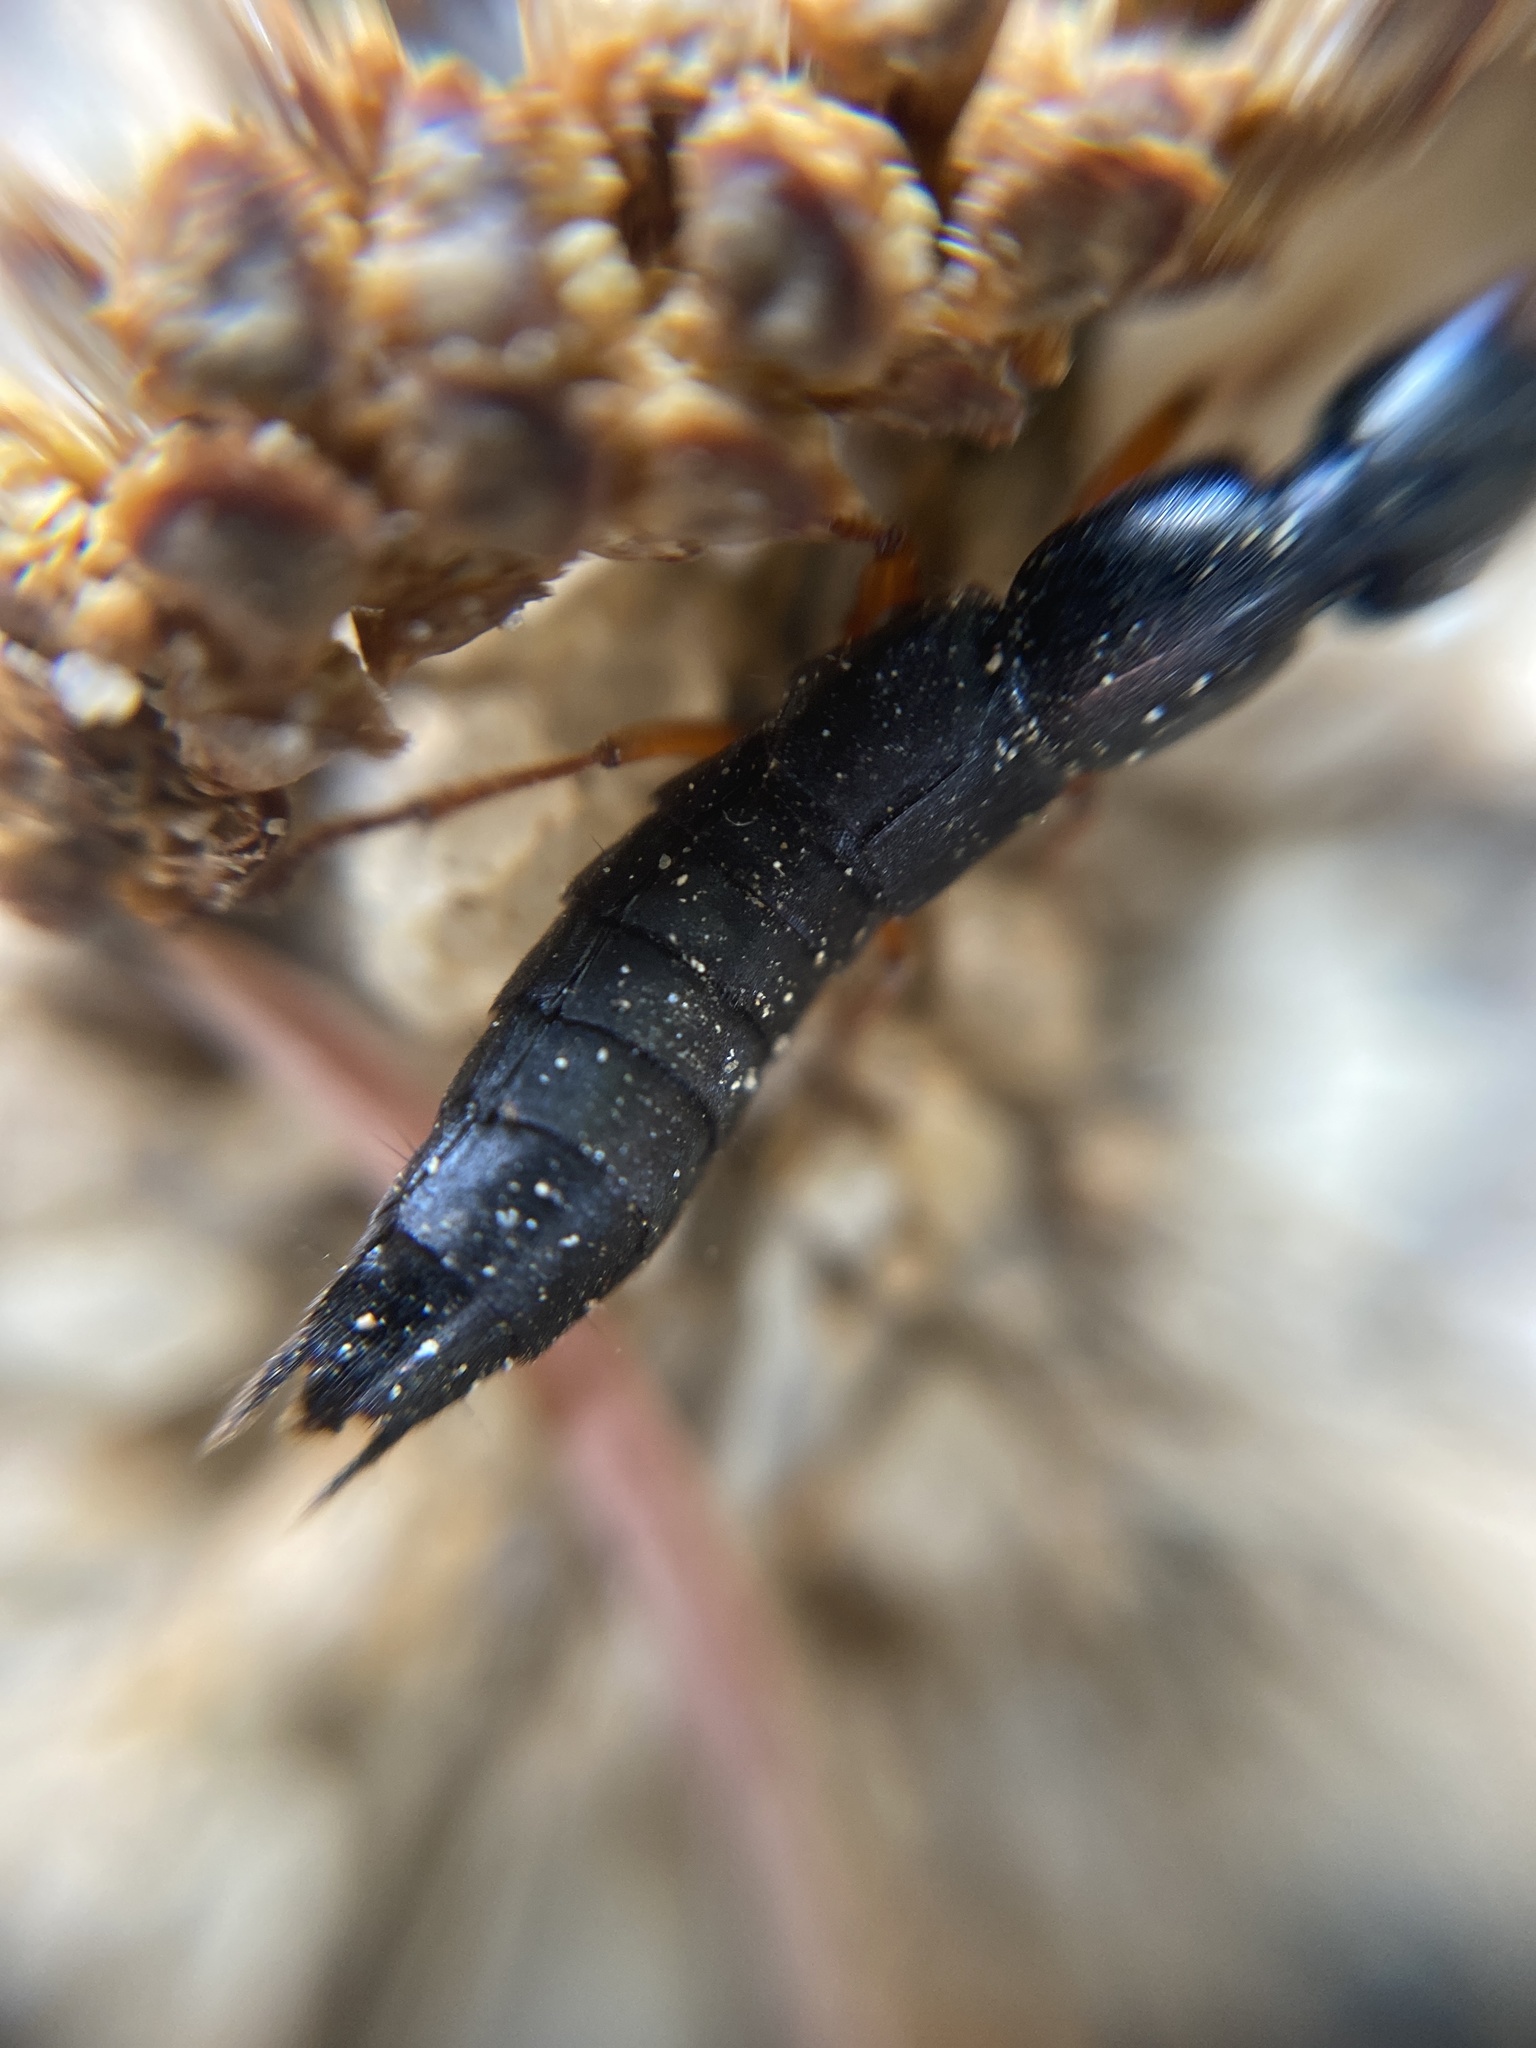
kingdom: Animalia
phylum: Arthropoda
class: Insecta
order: Coleoptera
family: Staphylinidae
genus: Ocypus
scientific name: Ocypus brunnipes
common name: Rove beetle
